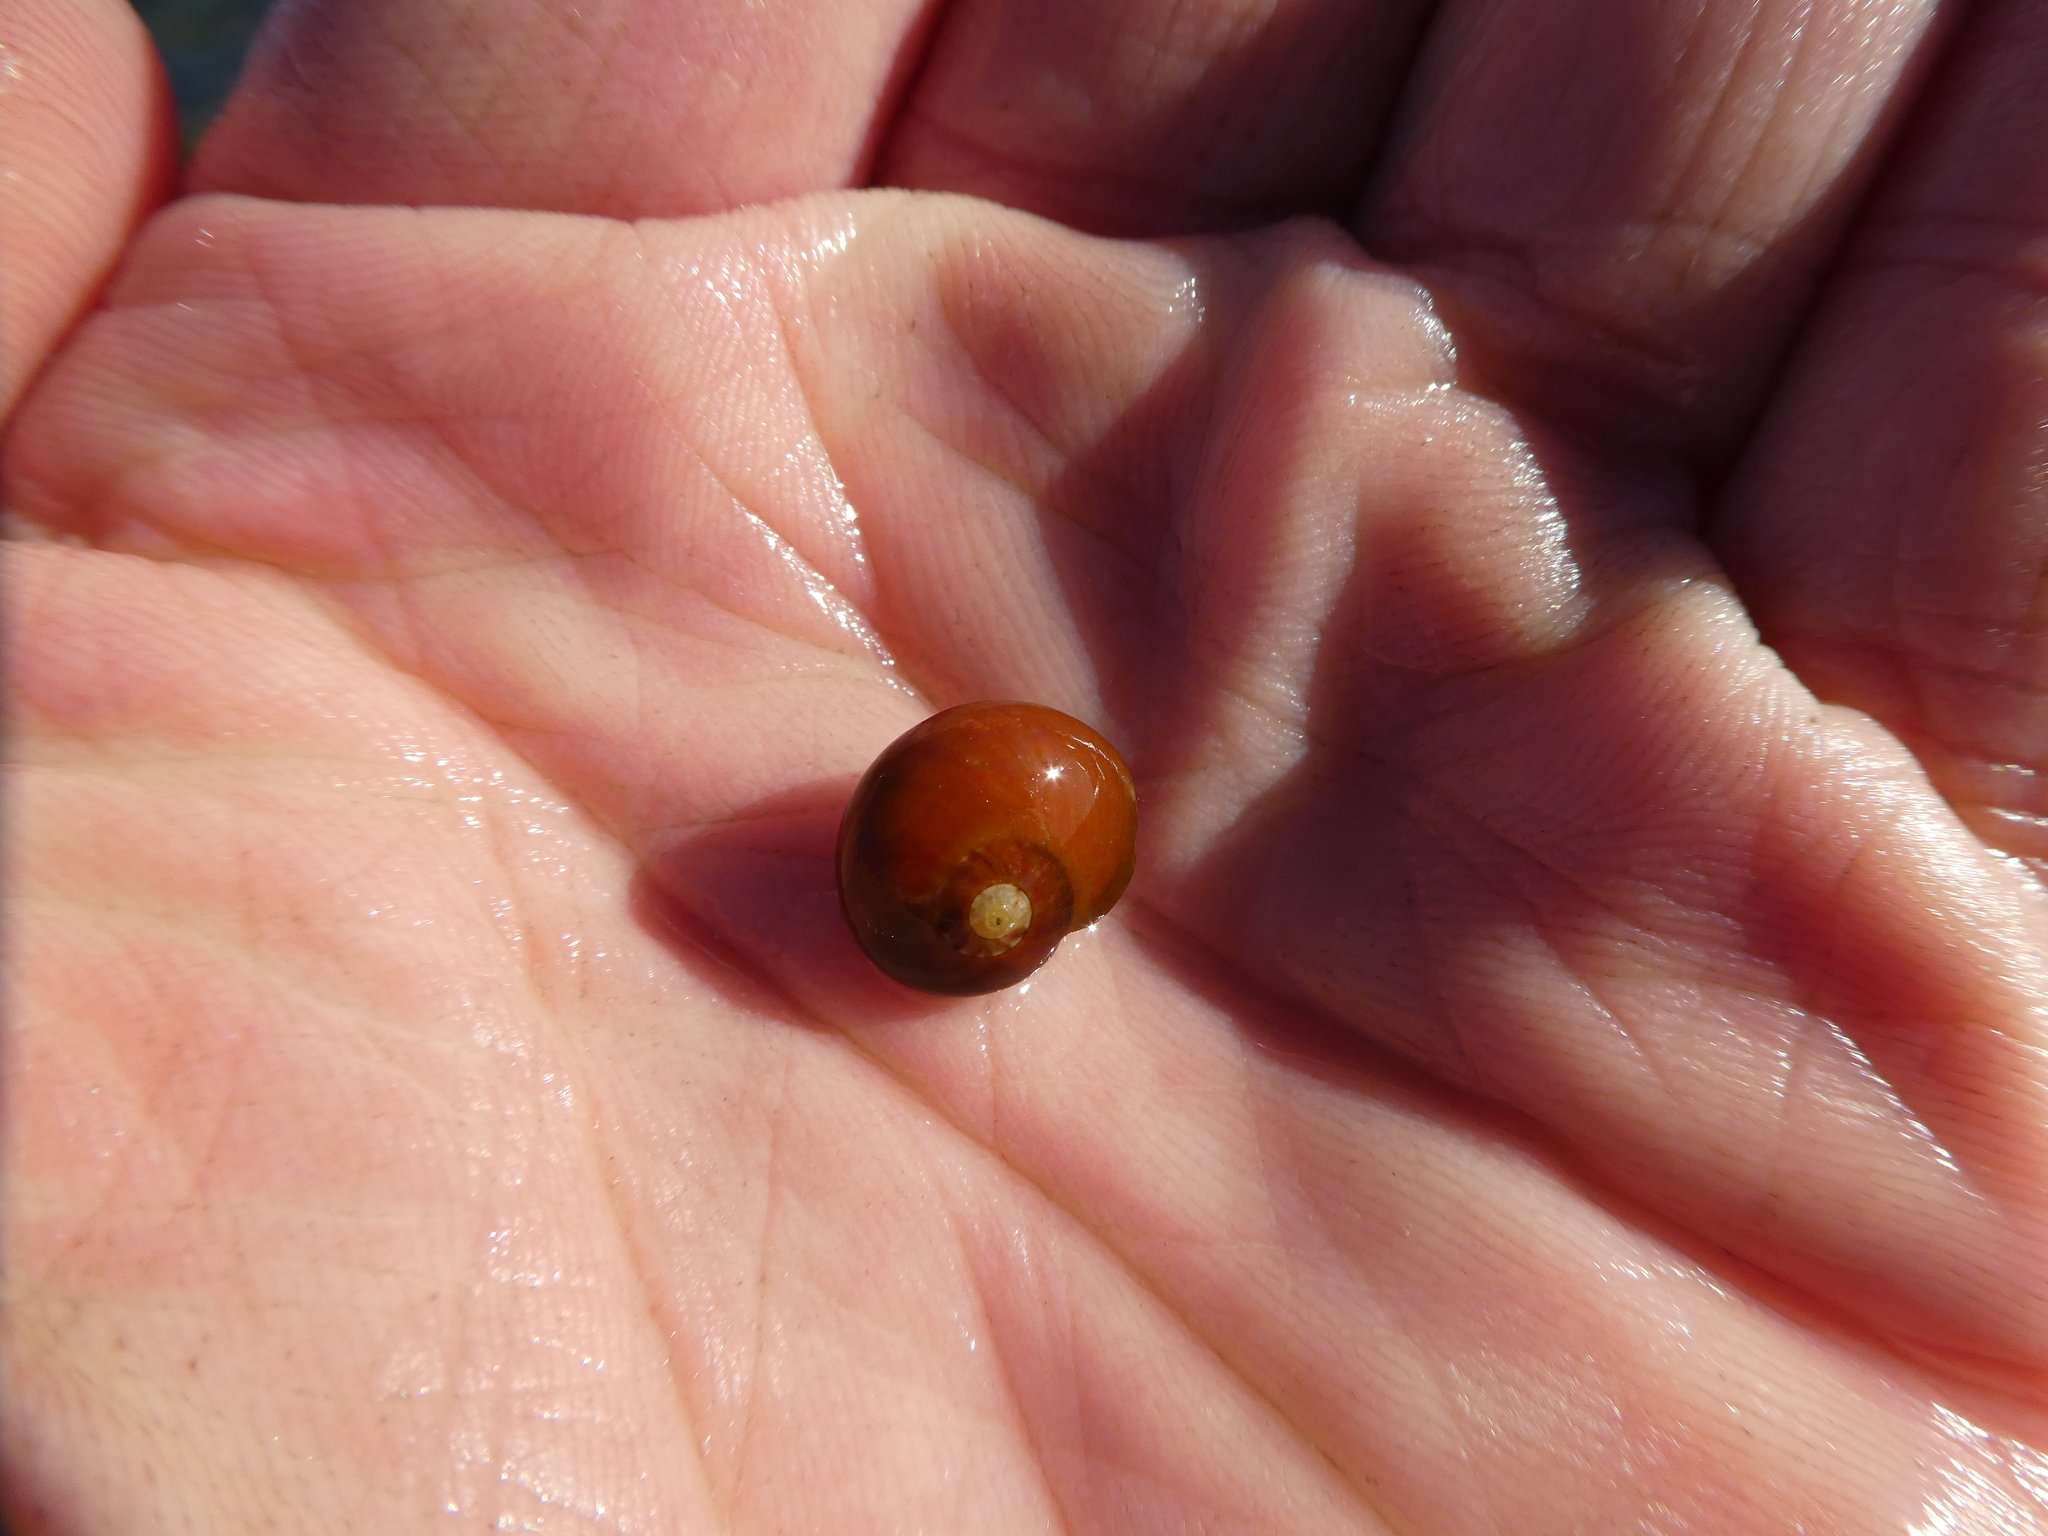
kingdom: Animalia
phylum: Mollusca
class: Gastropoda
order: Trochida
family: Tegulidae
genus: Norrisia
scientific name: Norrisia norrisii
